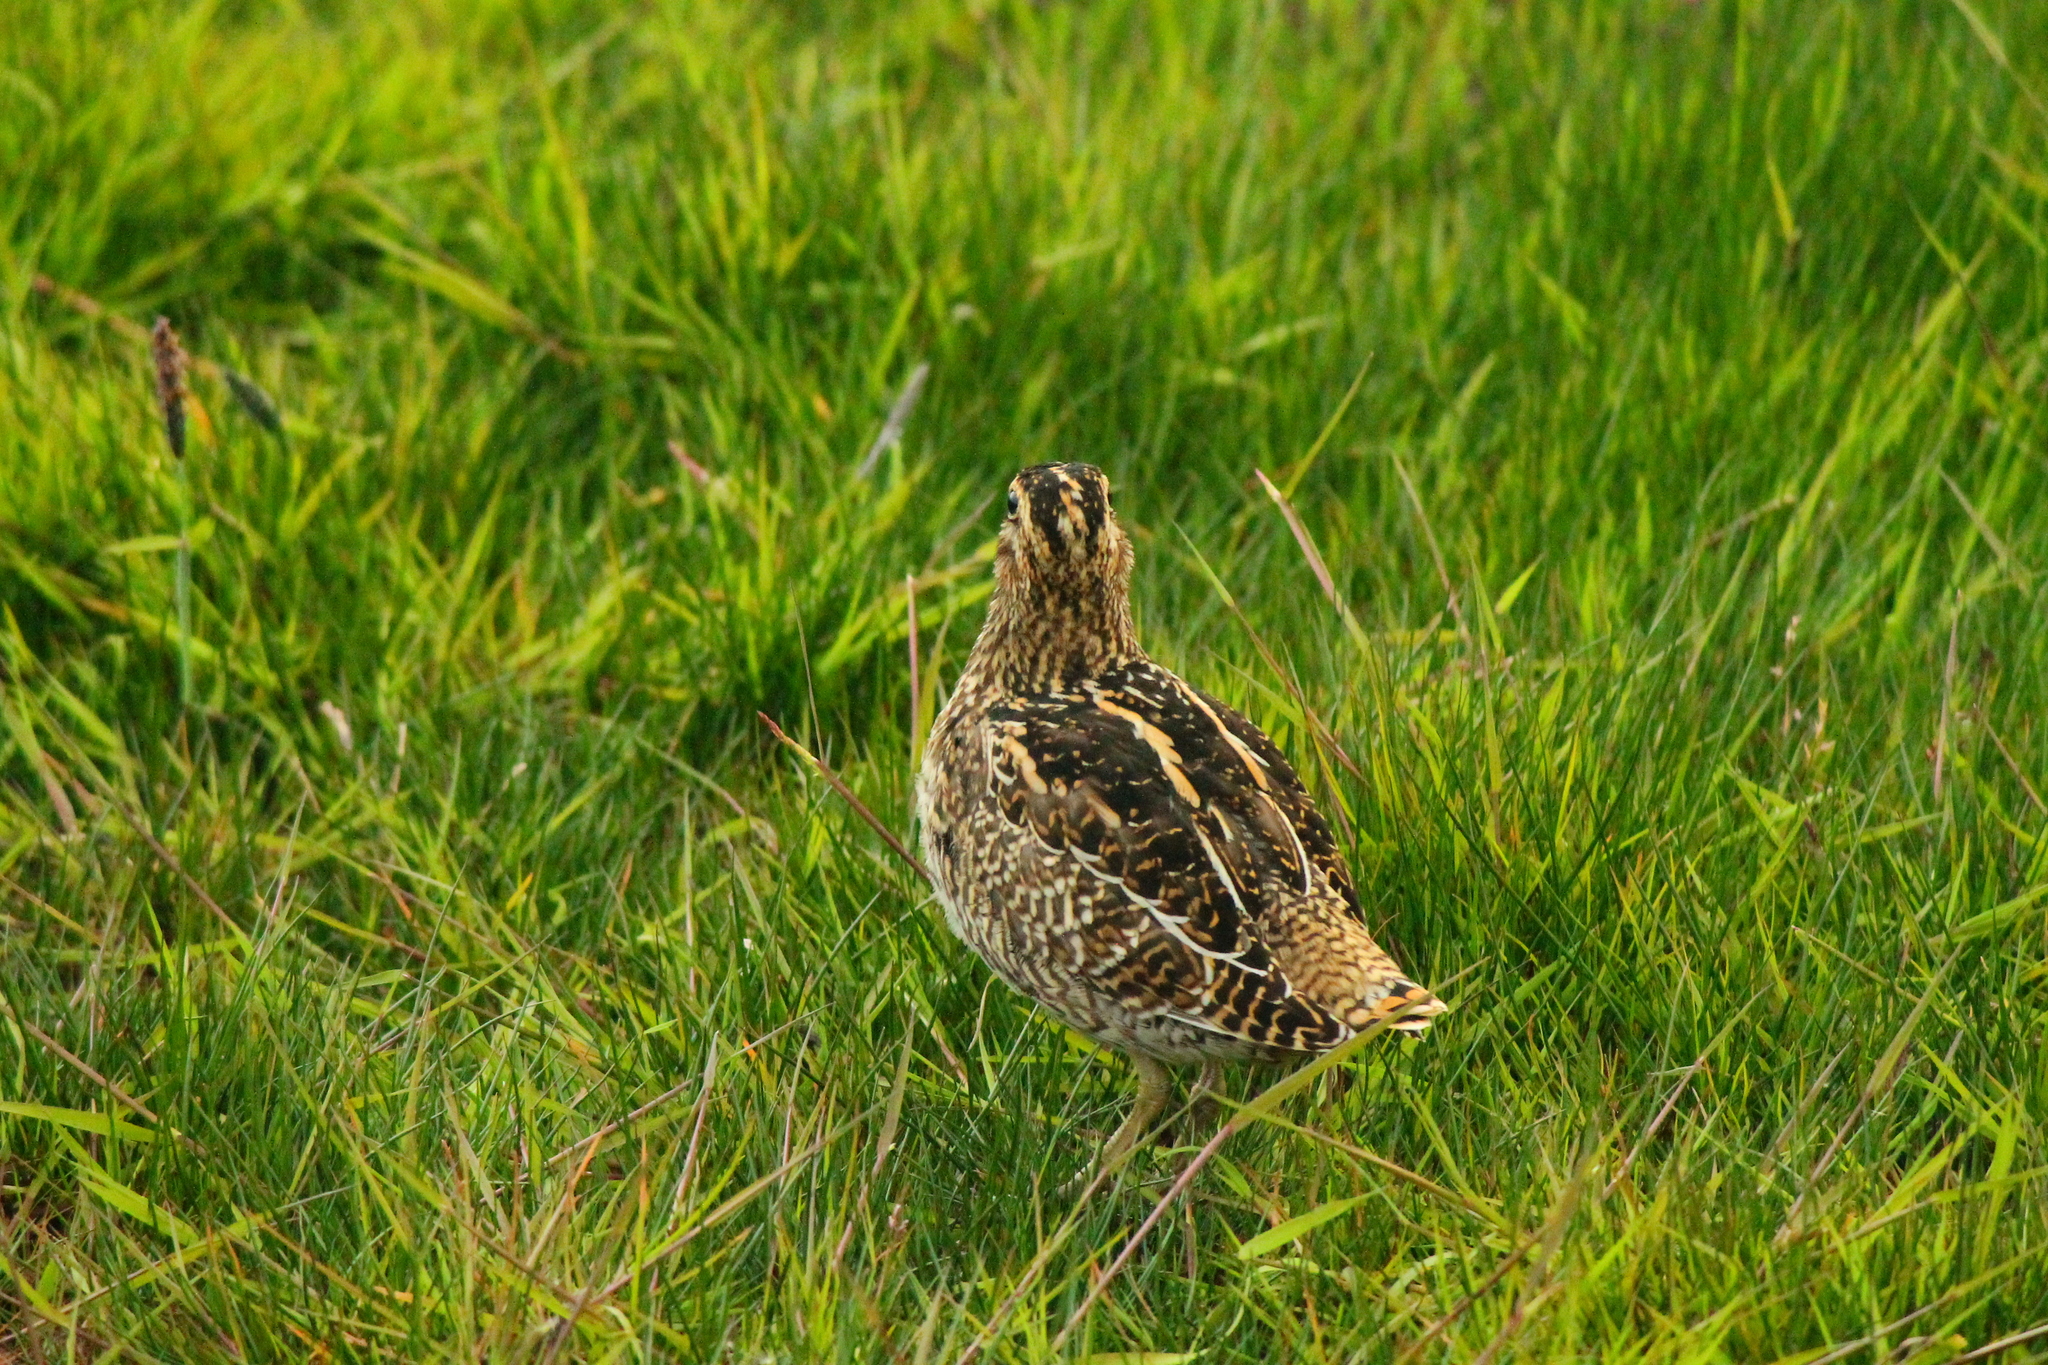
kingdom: Animalia
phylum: Chordata
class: Aves
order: Charadriiformes
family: Scolopacidae
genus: Gallinago
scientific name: Gallinago magellanica
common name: Magellanic snipe
